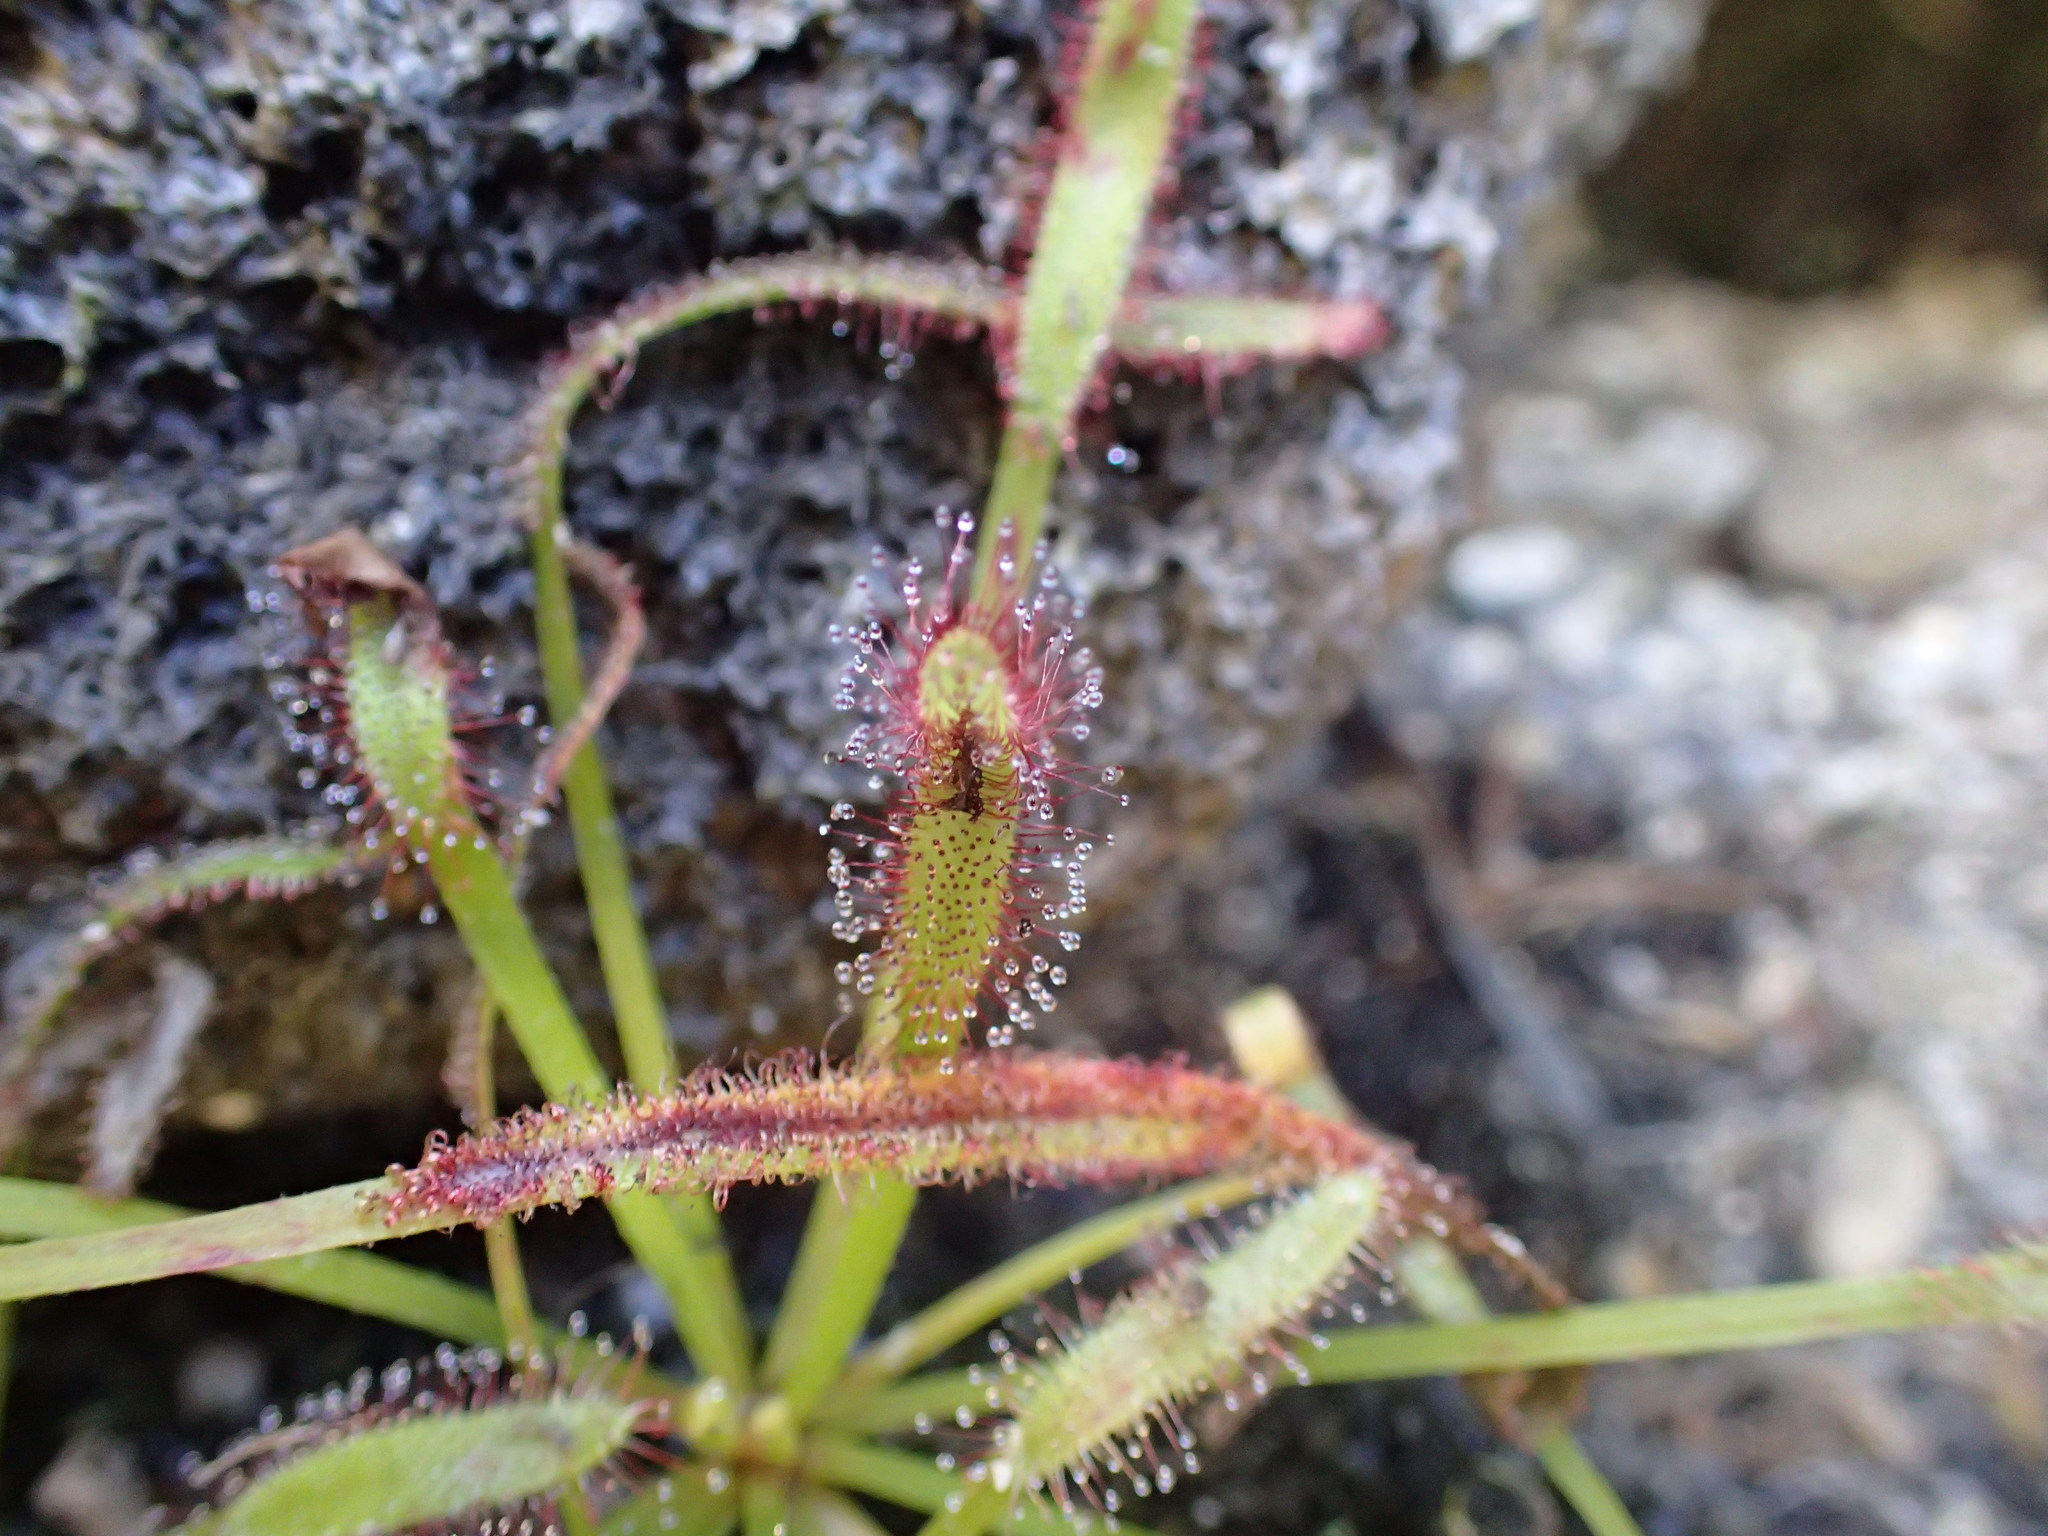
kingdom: Plantae
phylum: Tracheophyta
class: Magnoliopsida
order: Caryophyllales
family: Droseraceae
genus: Drosera
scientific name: Drosera capensis
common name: Cape sundew
